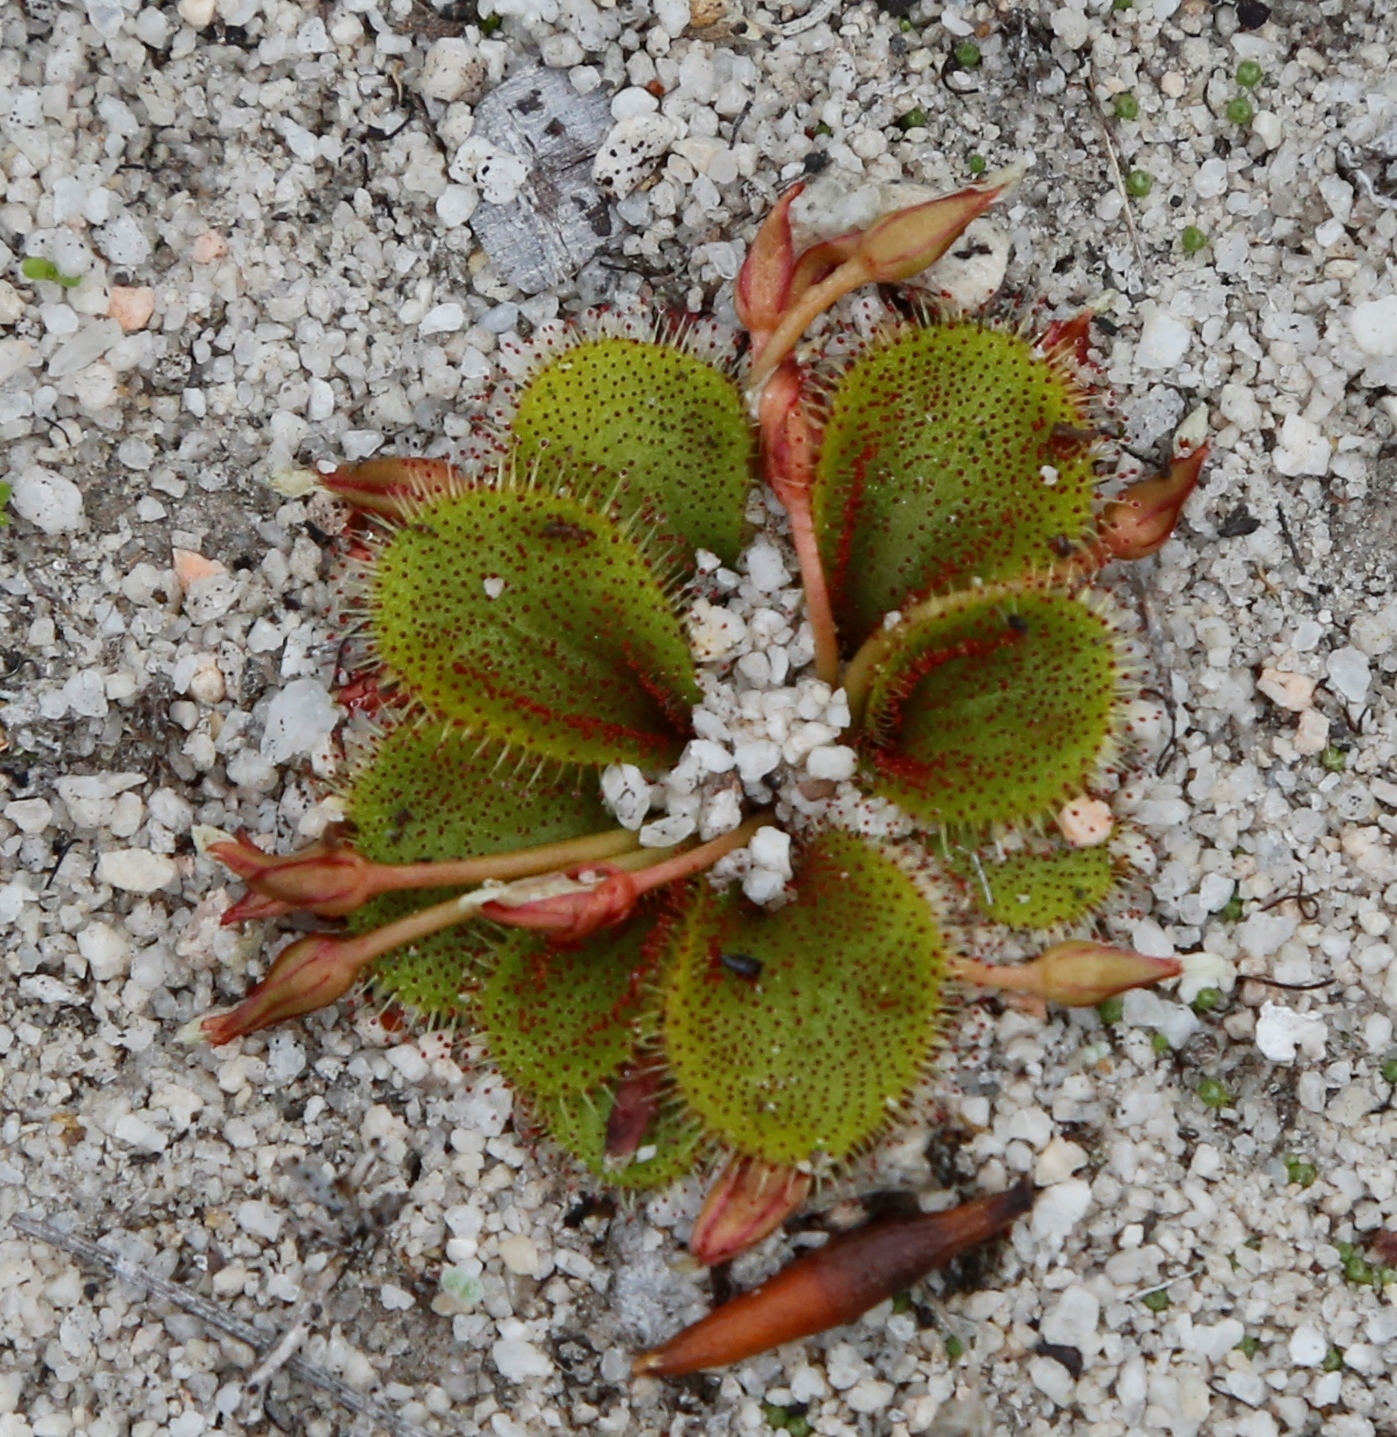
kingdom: Plantae
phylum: Tracheophyta
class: Magnoliopsida
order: Caryophyllales
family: Droseraceae
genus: Drosera
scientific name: Drosera bulbosa
